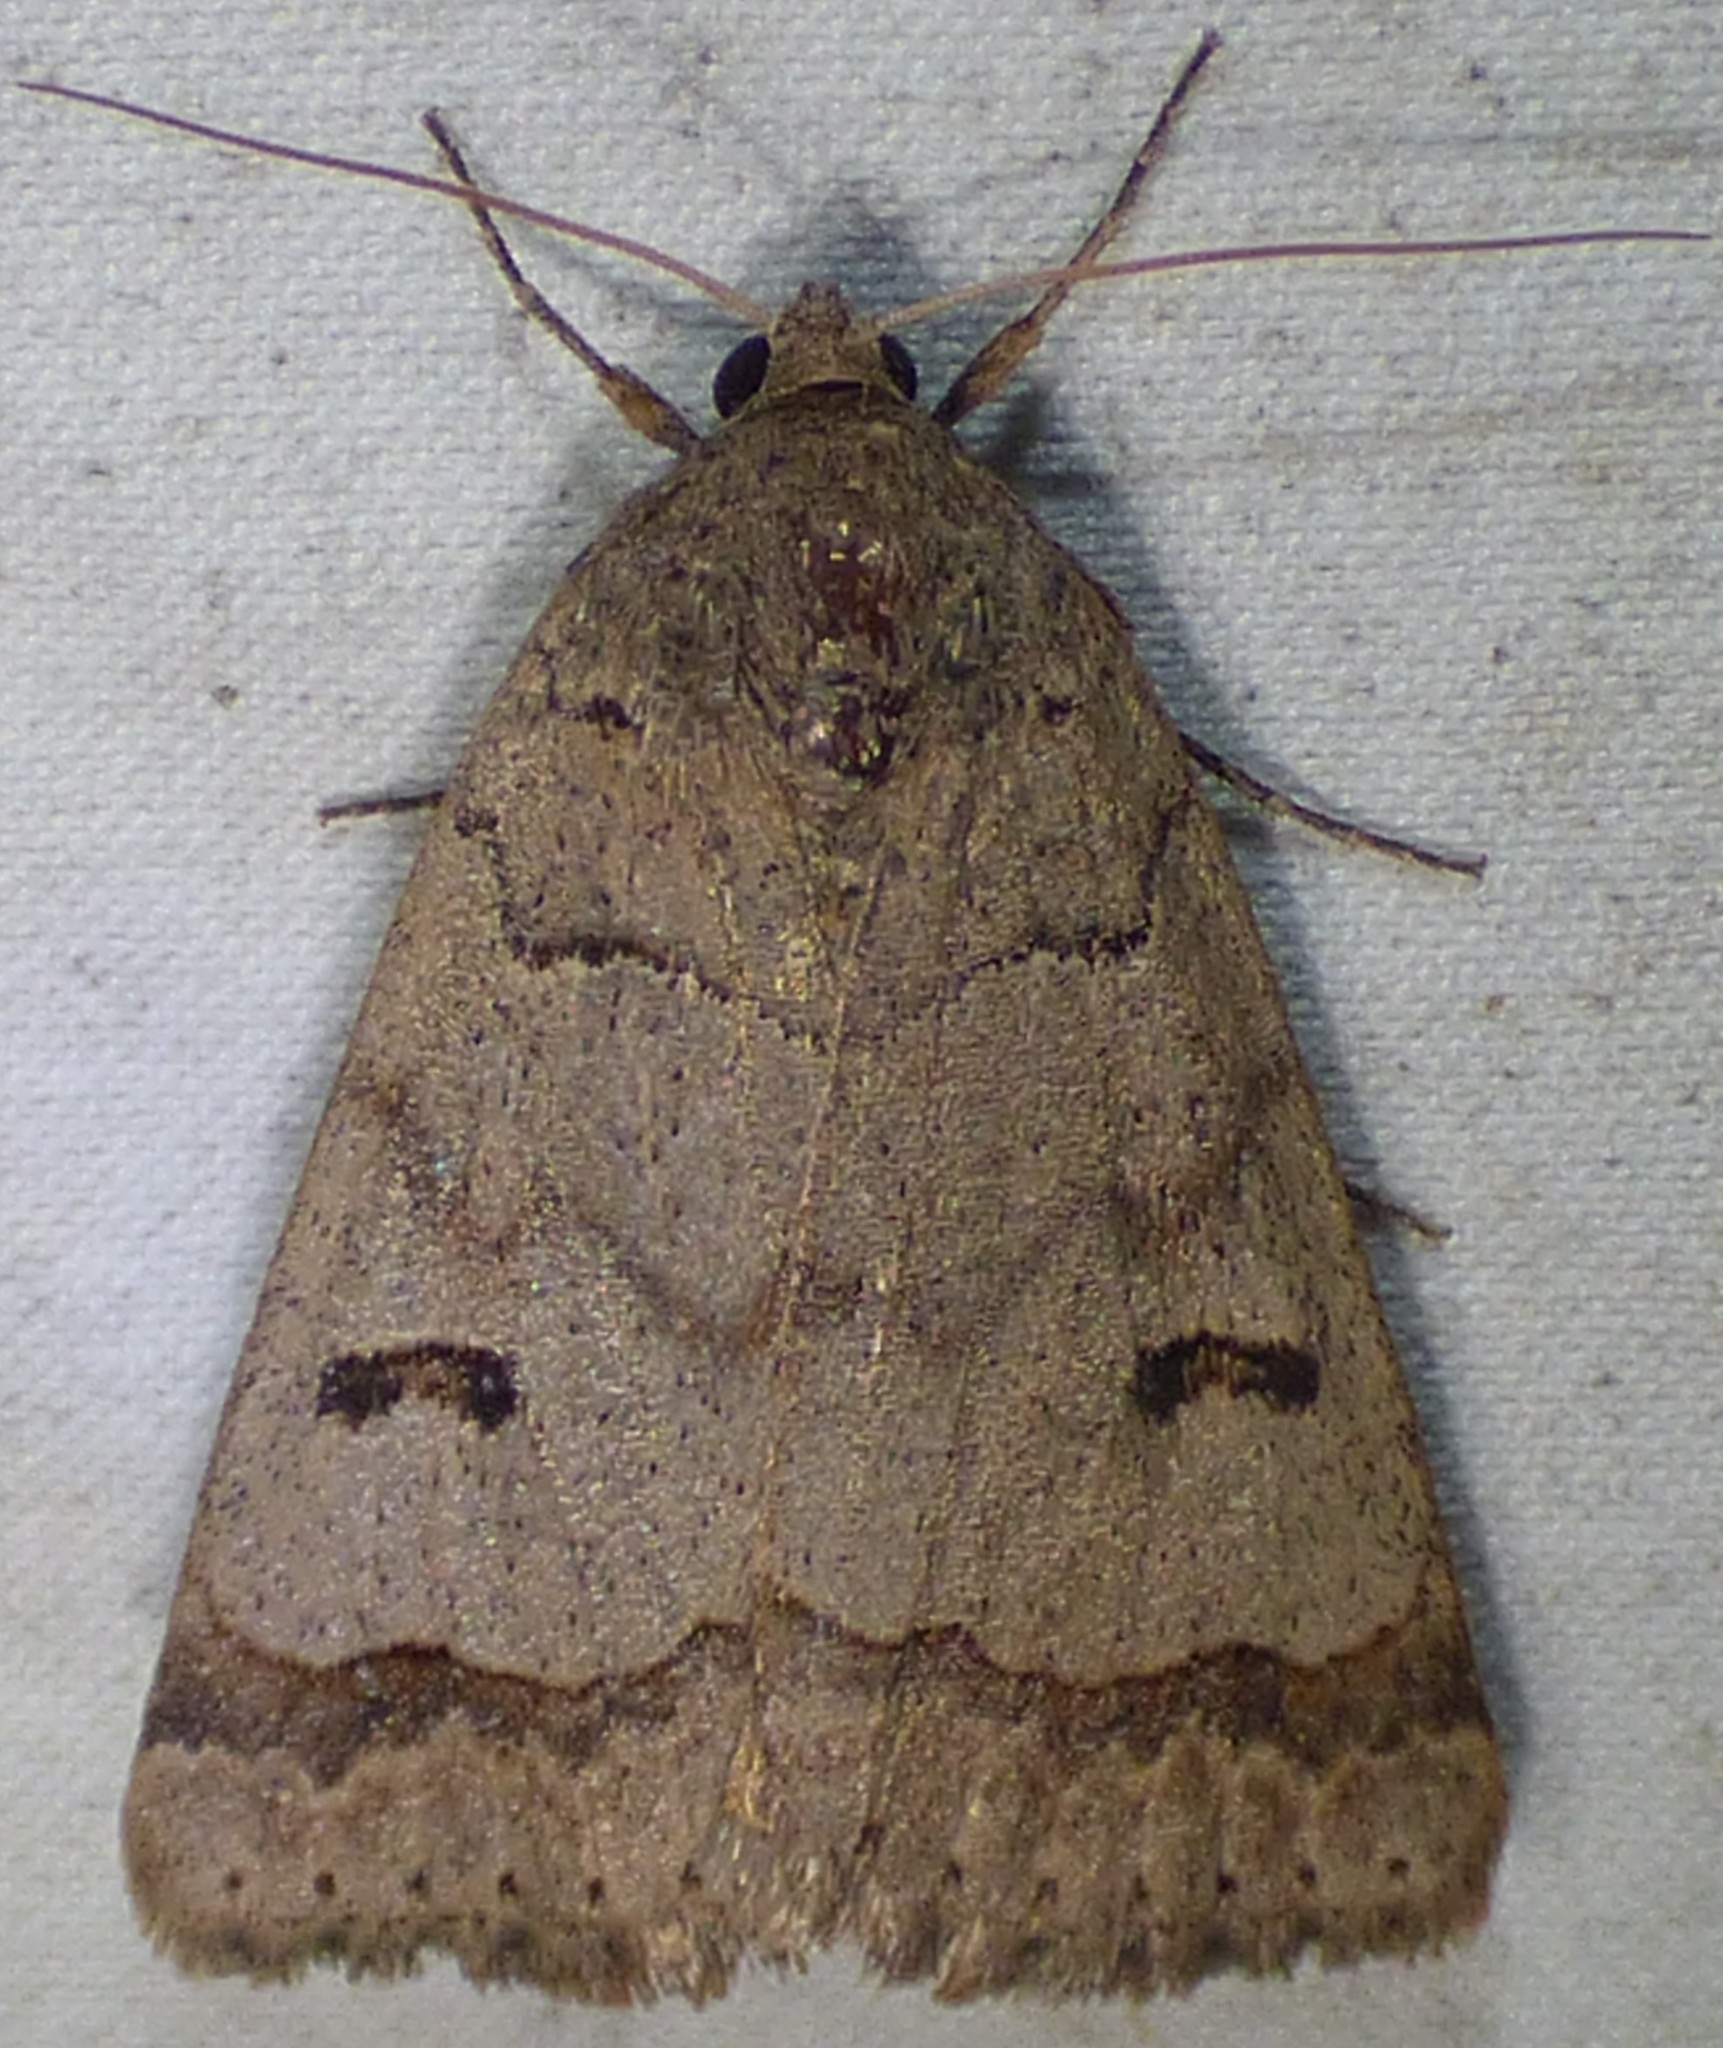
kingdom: Animalia
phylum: Arthropoda
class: Insecta
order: Lepidoptera
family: Erebidae
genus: Phoberia
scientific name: Phoberia atomaris
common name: Common oak moth
